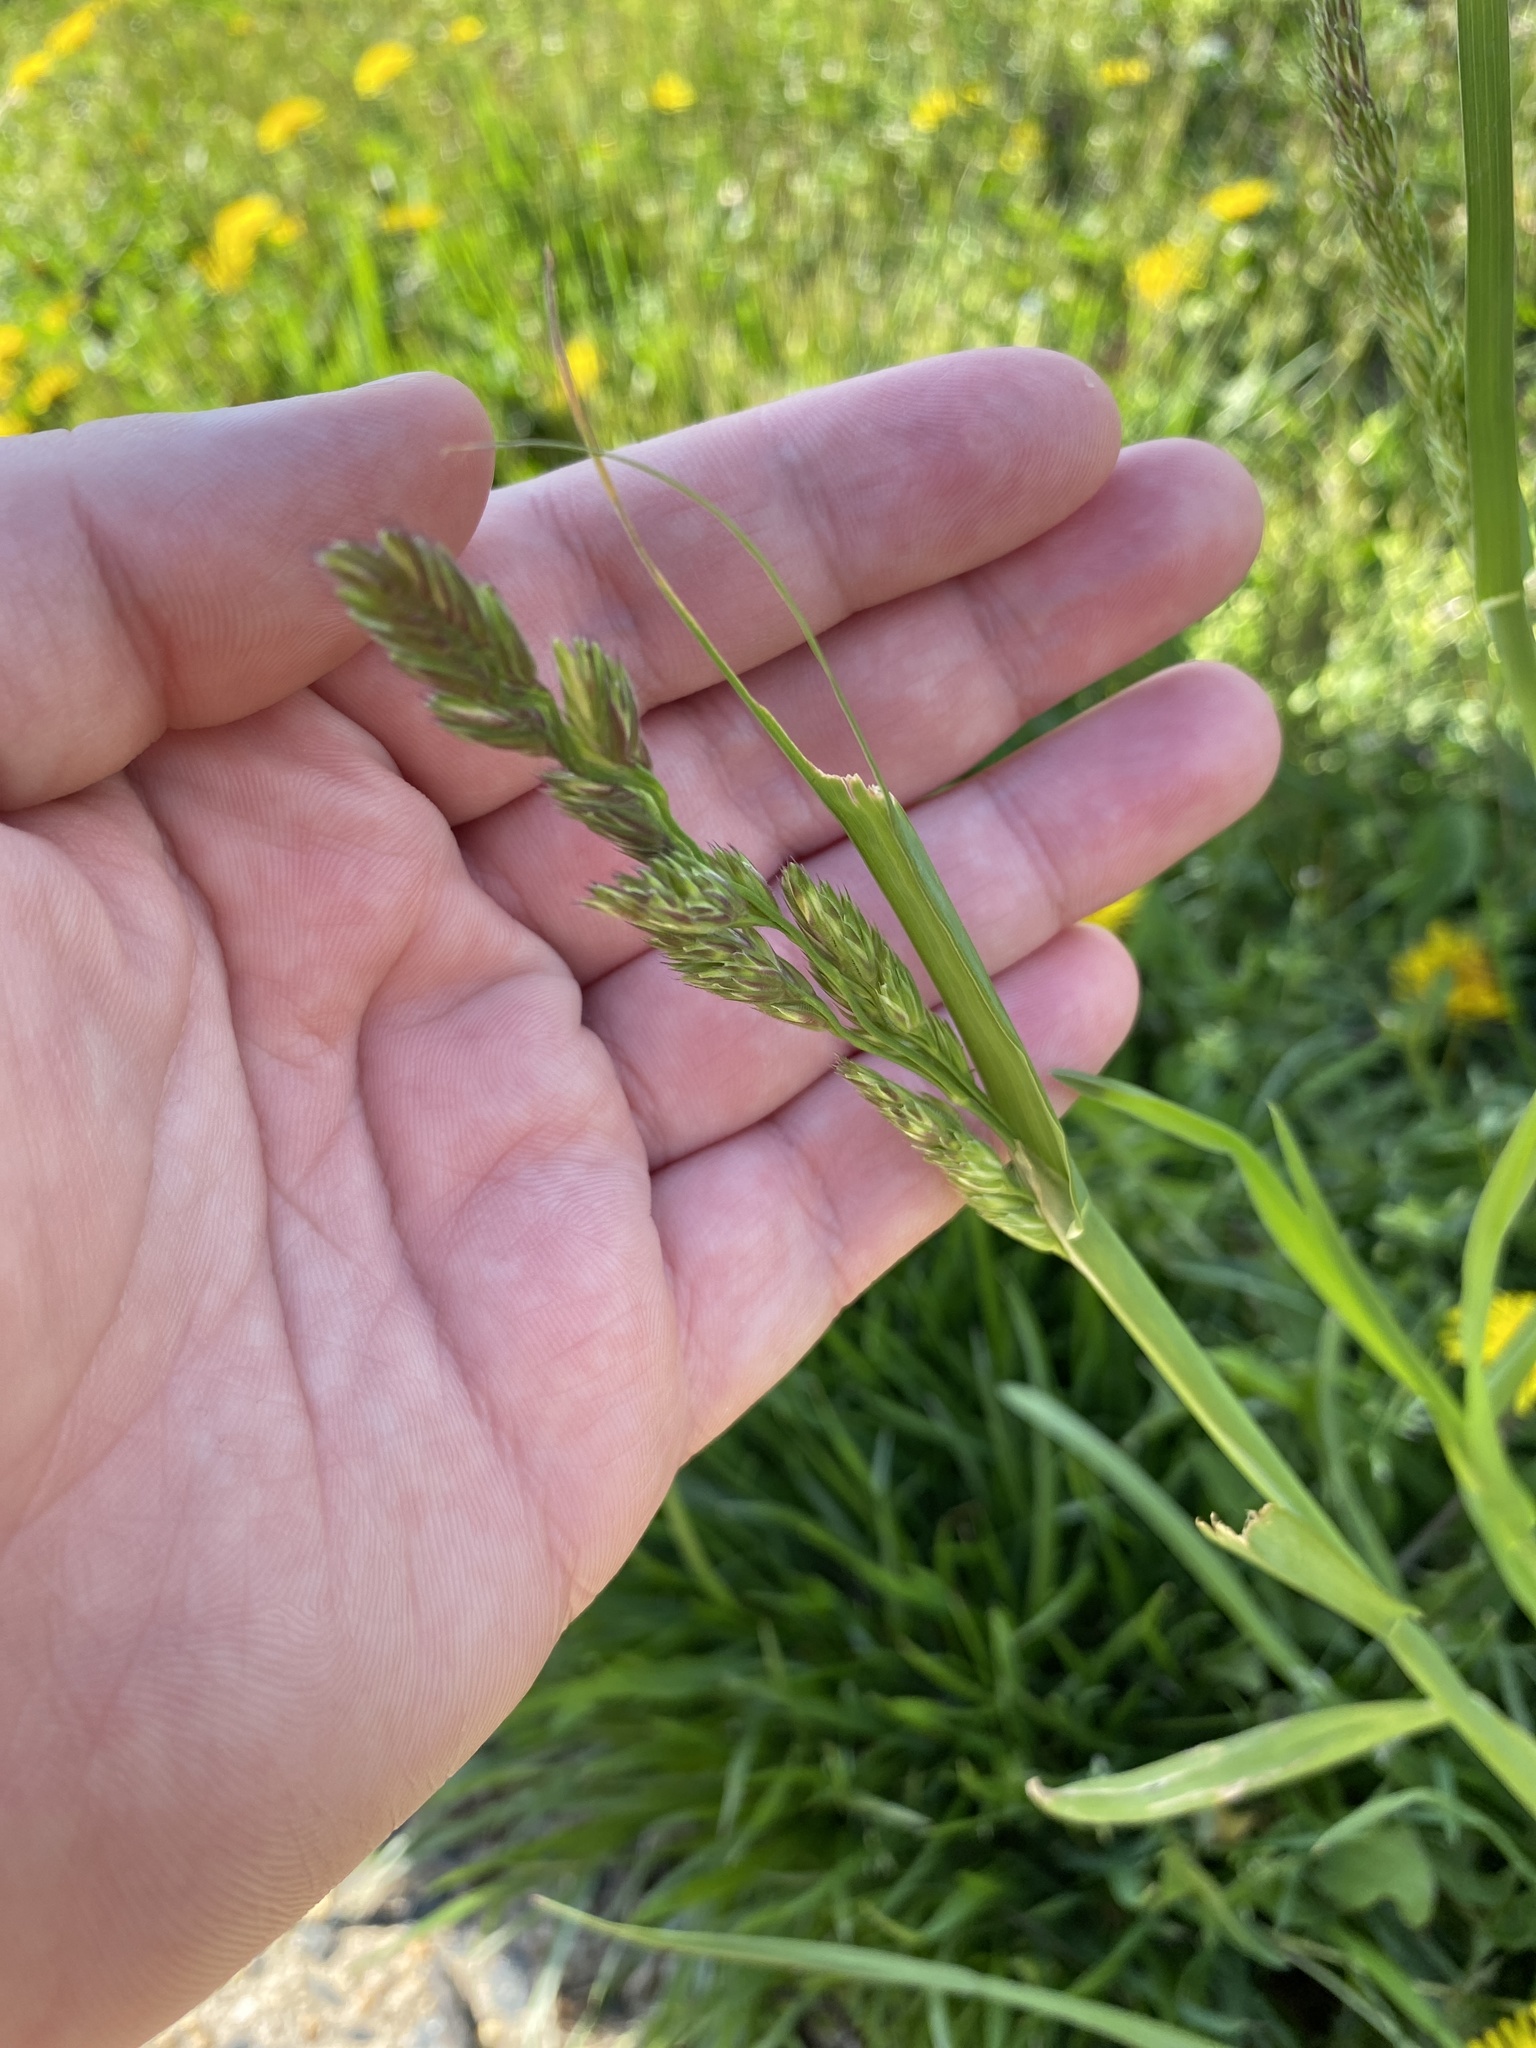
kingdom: Plantae
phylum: Tracheophyta
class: Liliopsida
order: Poales
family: Poaceae
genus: Dactylis
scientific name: Dactylis glomerata
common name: Orchardgrass
